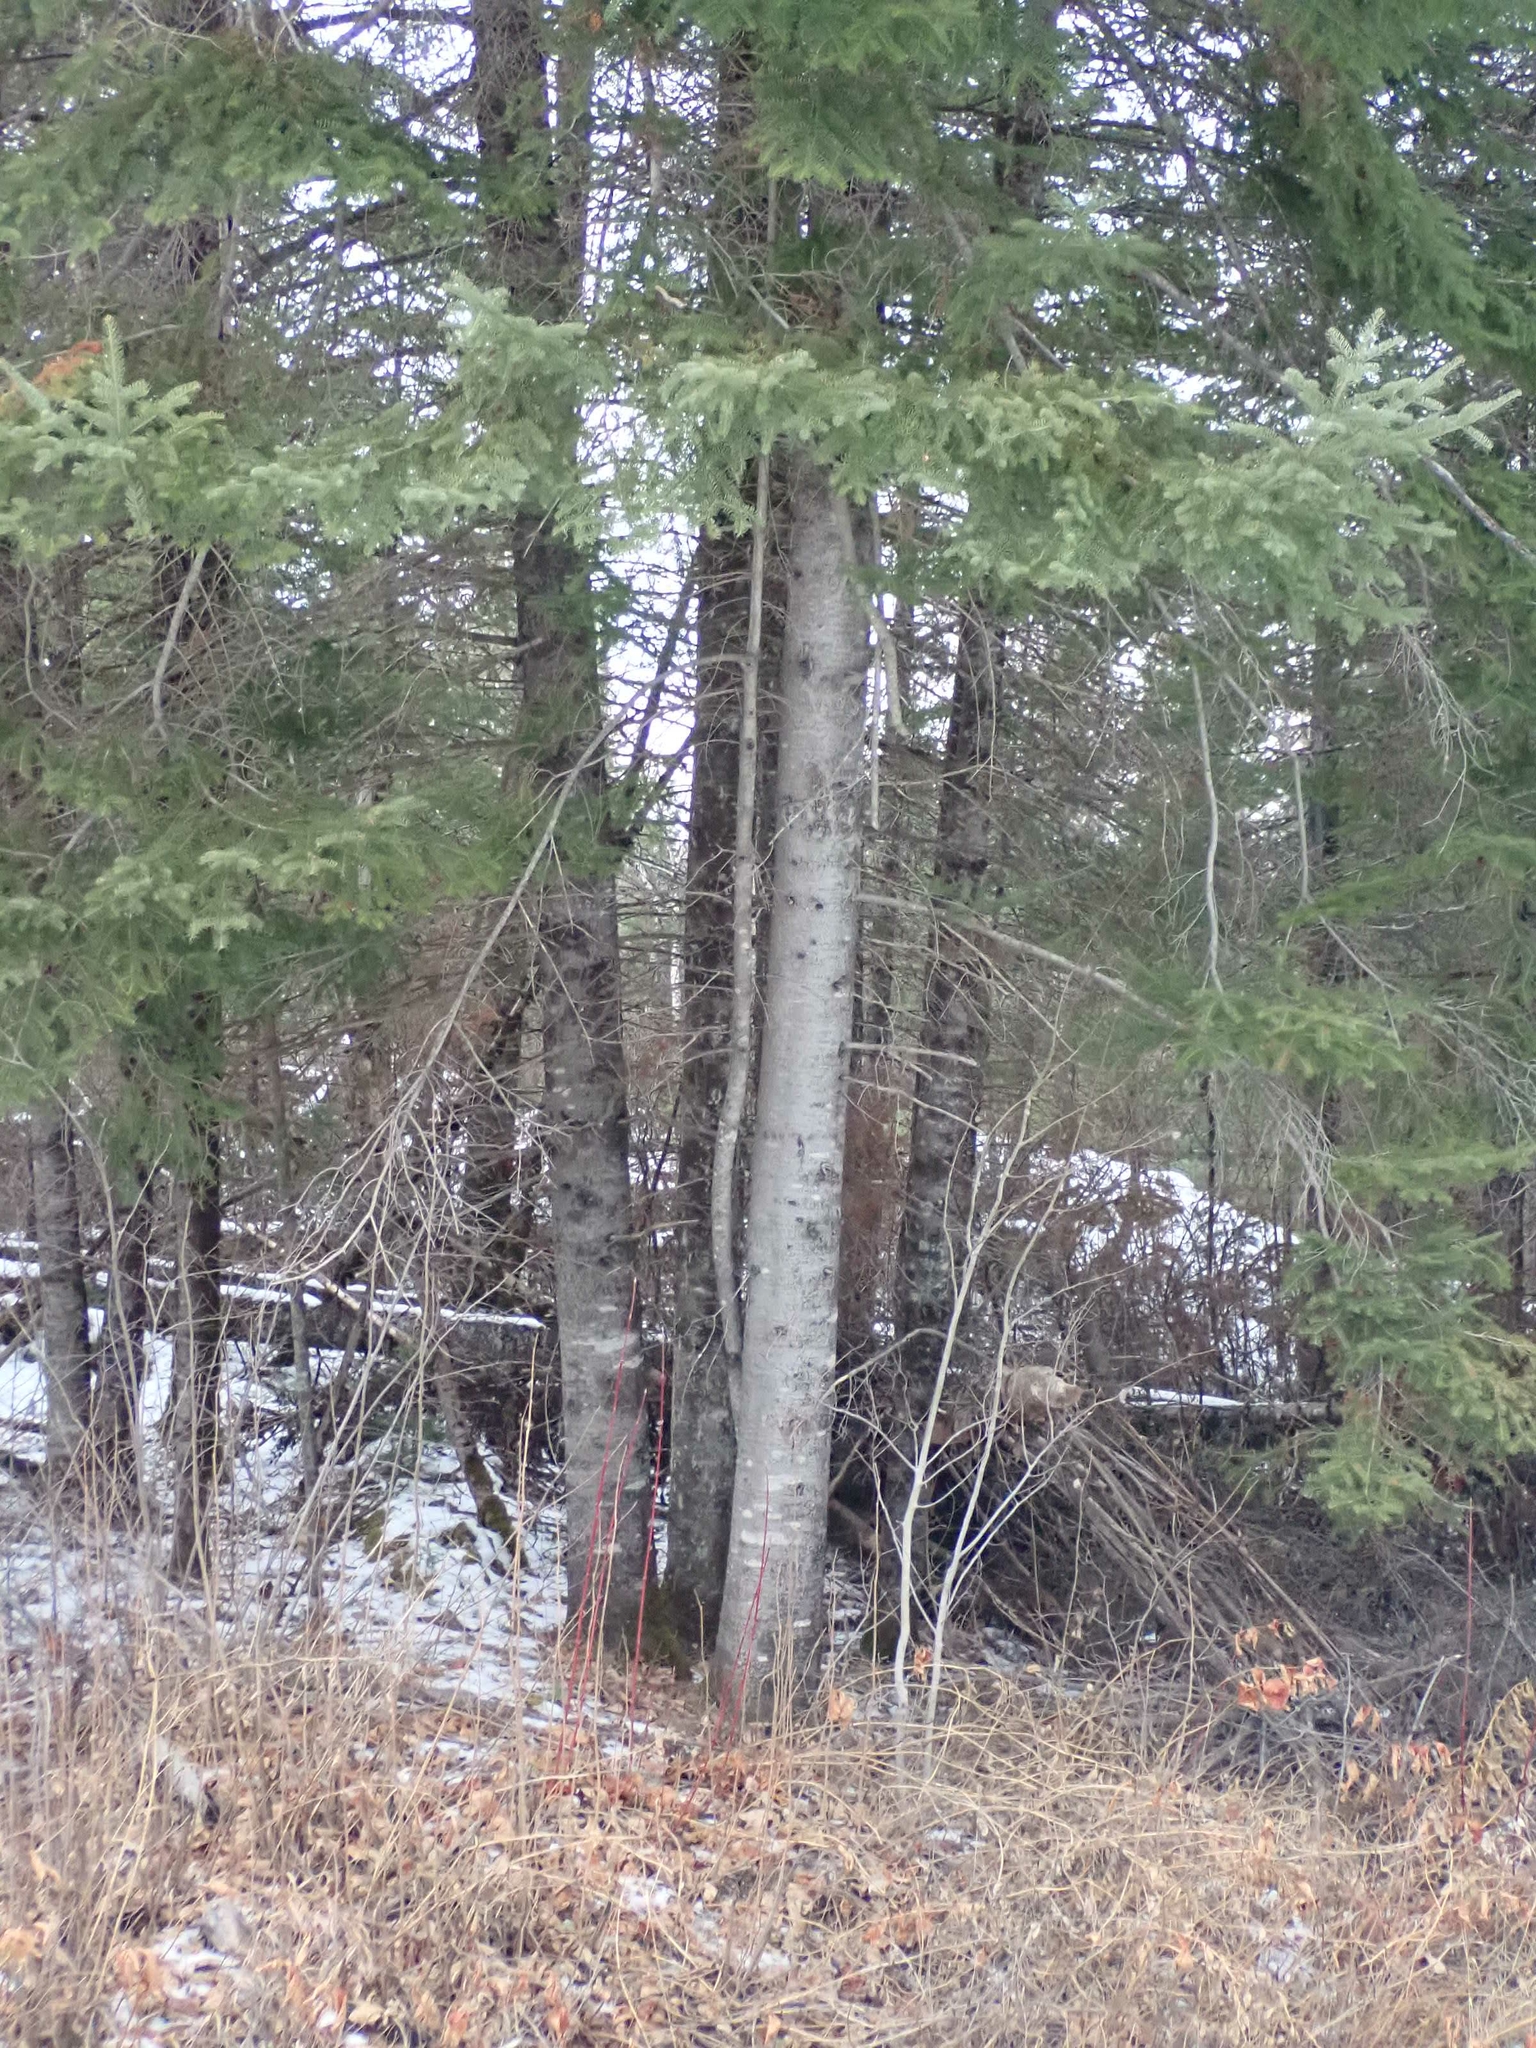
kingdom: Plantae
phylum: Tracheophyta
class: Pinopsida
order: Pinales
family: Pinaceae
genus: Abies
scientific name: Abies balsamea
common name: Balsam fir
